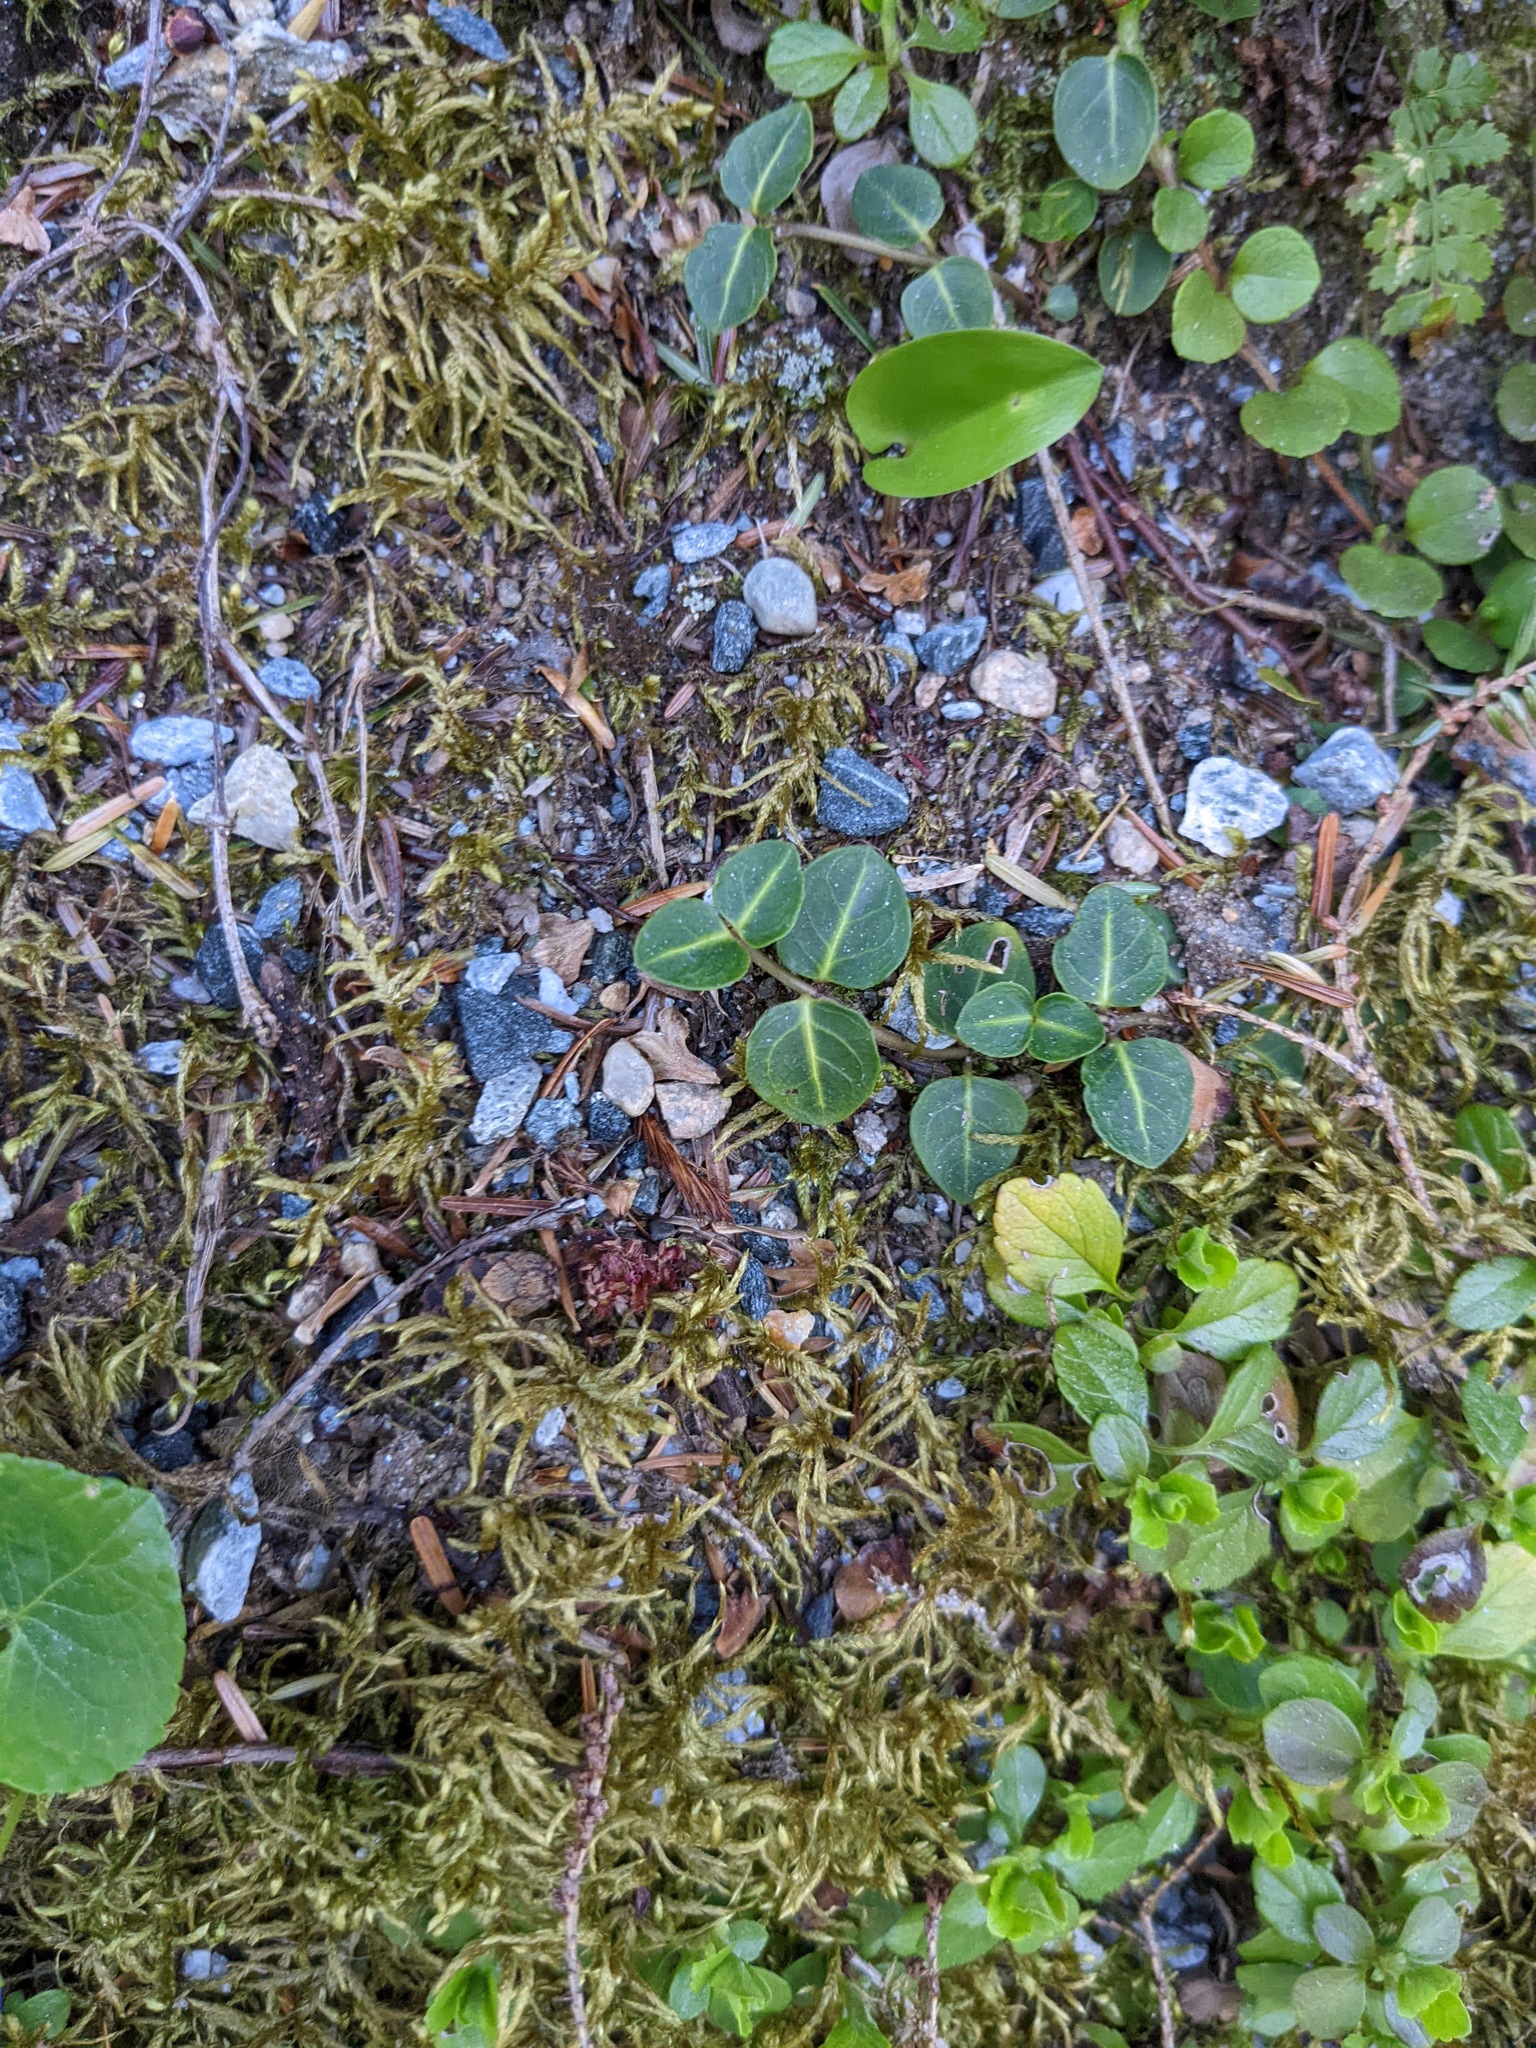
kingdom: Plantae
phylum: Tracheophyta
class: Magnoliopsida
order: Gentianales
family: Rubiaceae
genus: Mitchella
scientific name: Mitchella repens
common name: Partridge-berry
